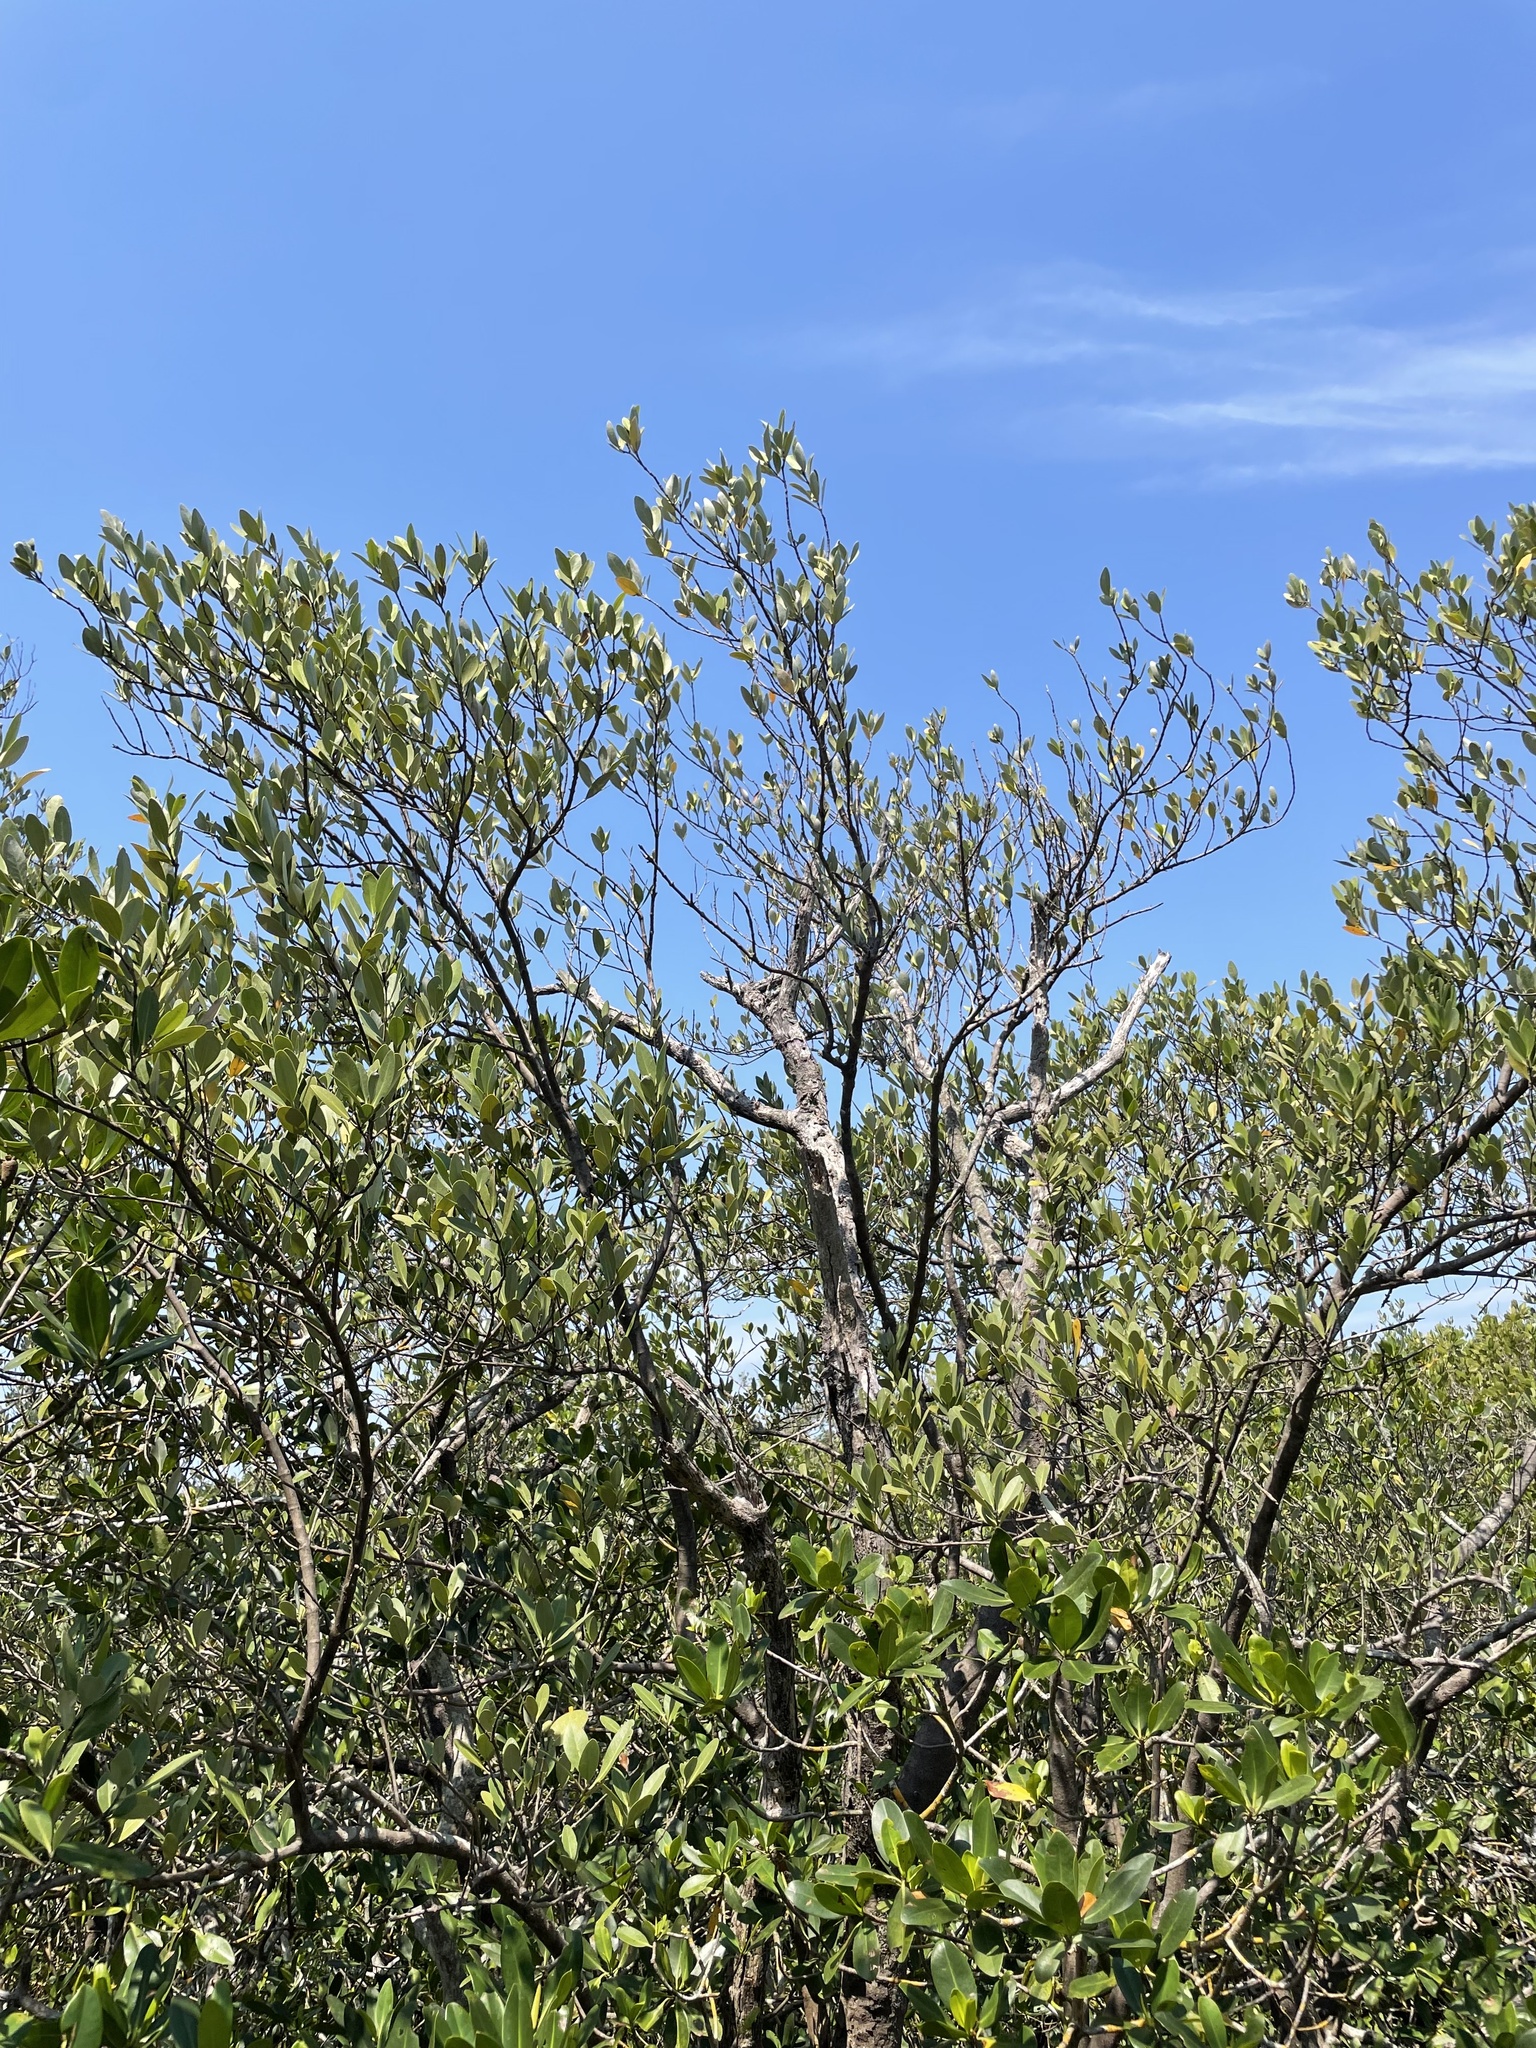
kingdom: Plantae
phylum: Tracheophyta
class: Magnoliopsida
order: Lamiales
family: Acanthaceae
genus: Avicennia
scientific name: Avicennia germinans
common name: Black mangrove
